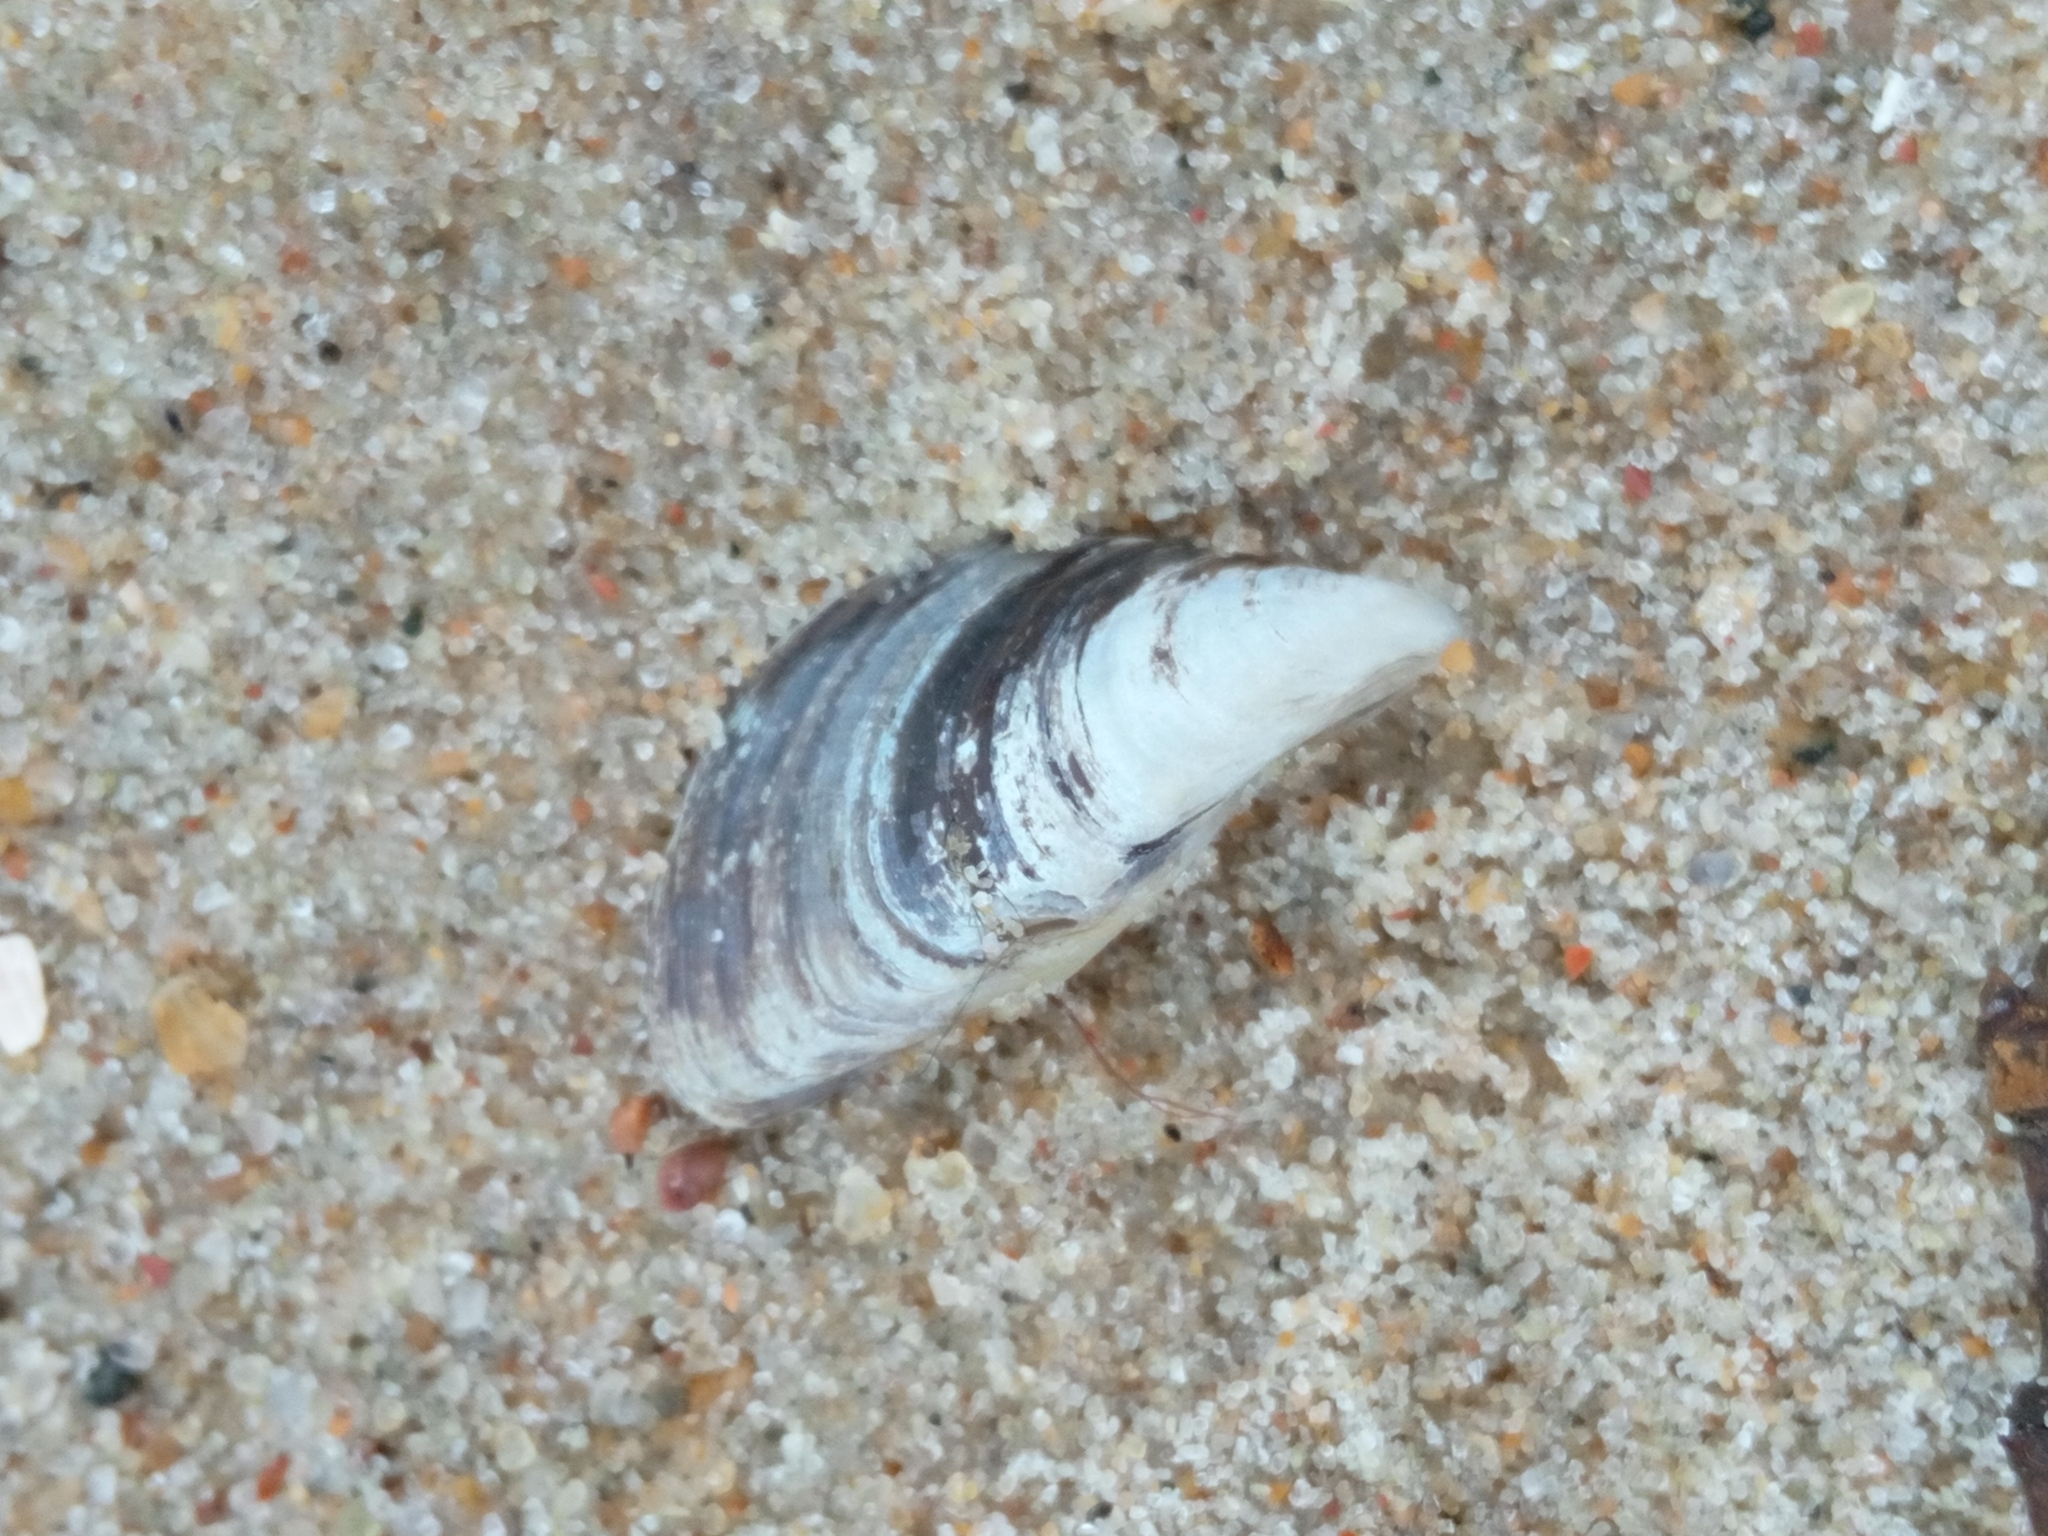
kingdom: Animalia
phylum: Mollusca
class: Bivalvia
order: Myida
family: Dreissenidae
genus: Dreissena
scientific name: Dreissena polymorpha
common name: Zebra mussel
